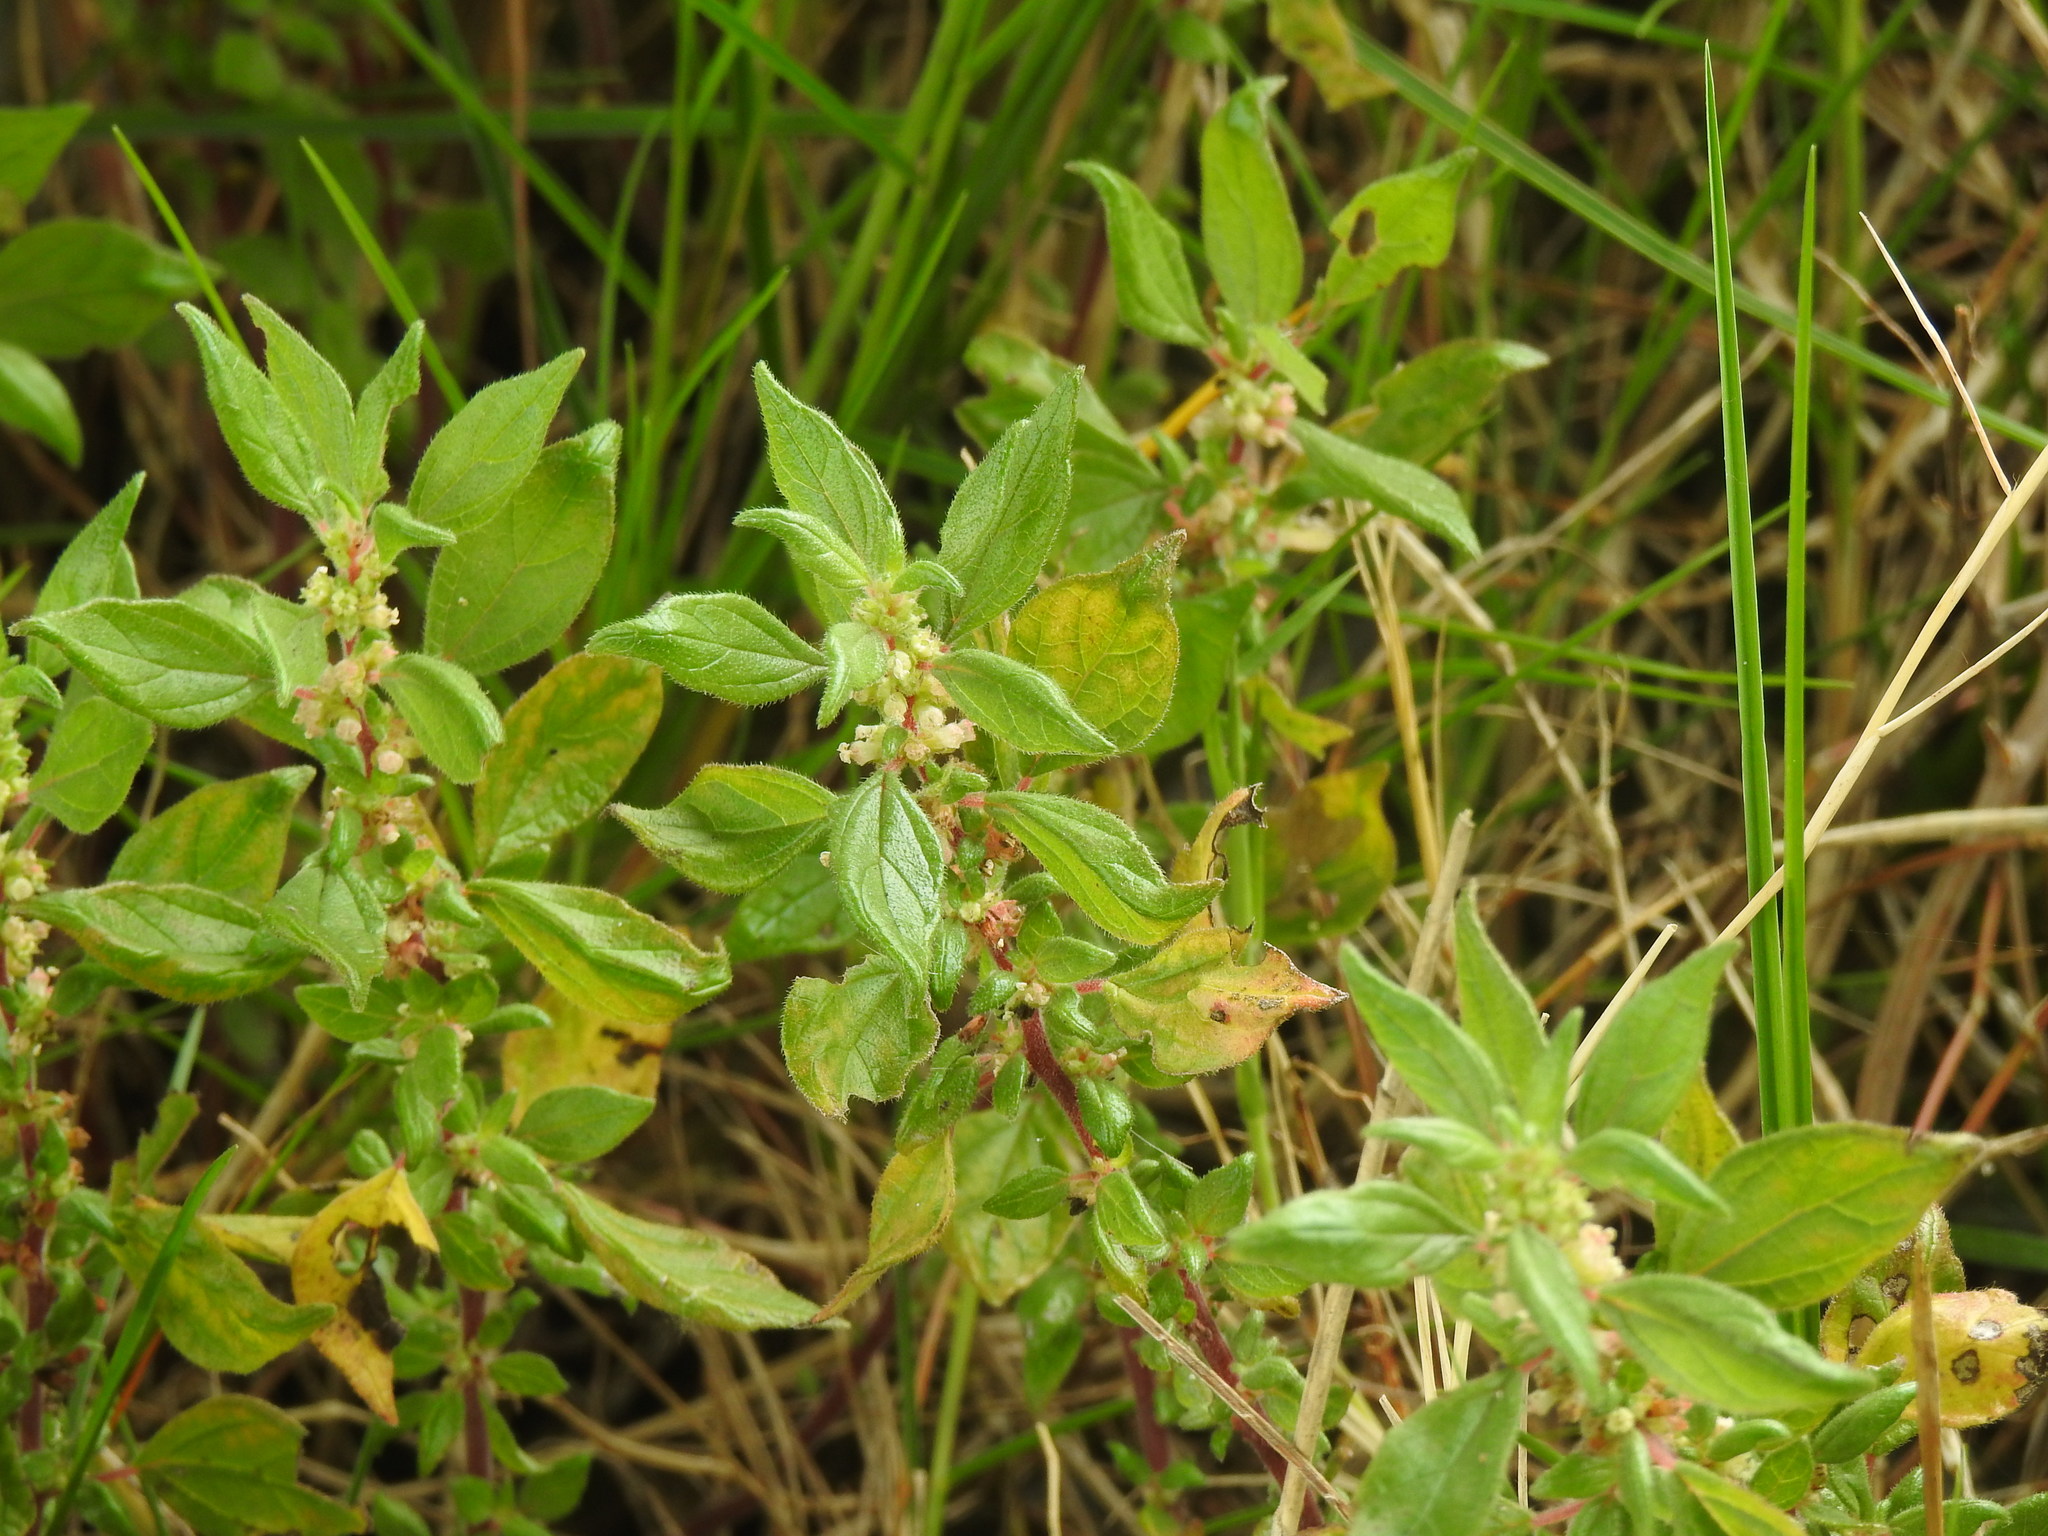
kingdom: Plantae
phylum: Tracheophyta
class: Magnoliopsida
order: Rosales
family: Urticaceae
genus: Parietaria
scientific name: Parietaria judaica
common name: Pellitory-of-the-wall
